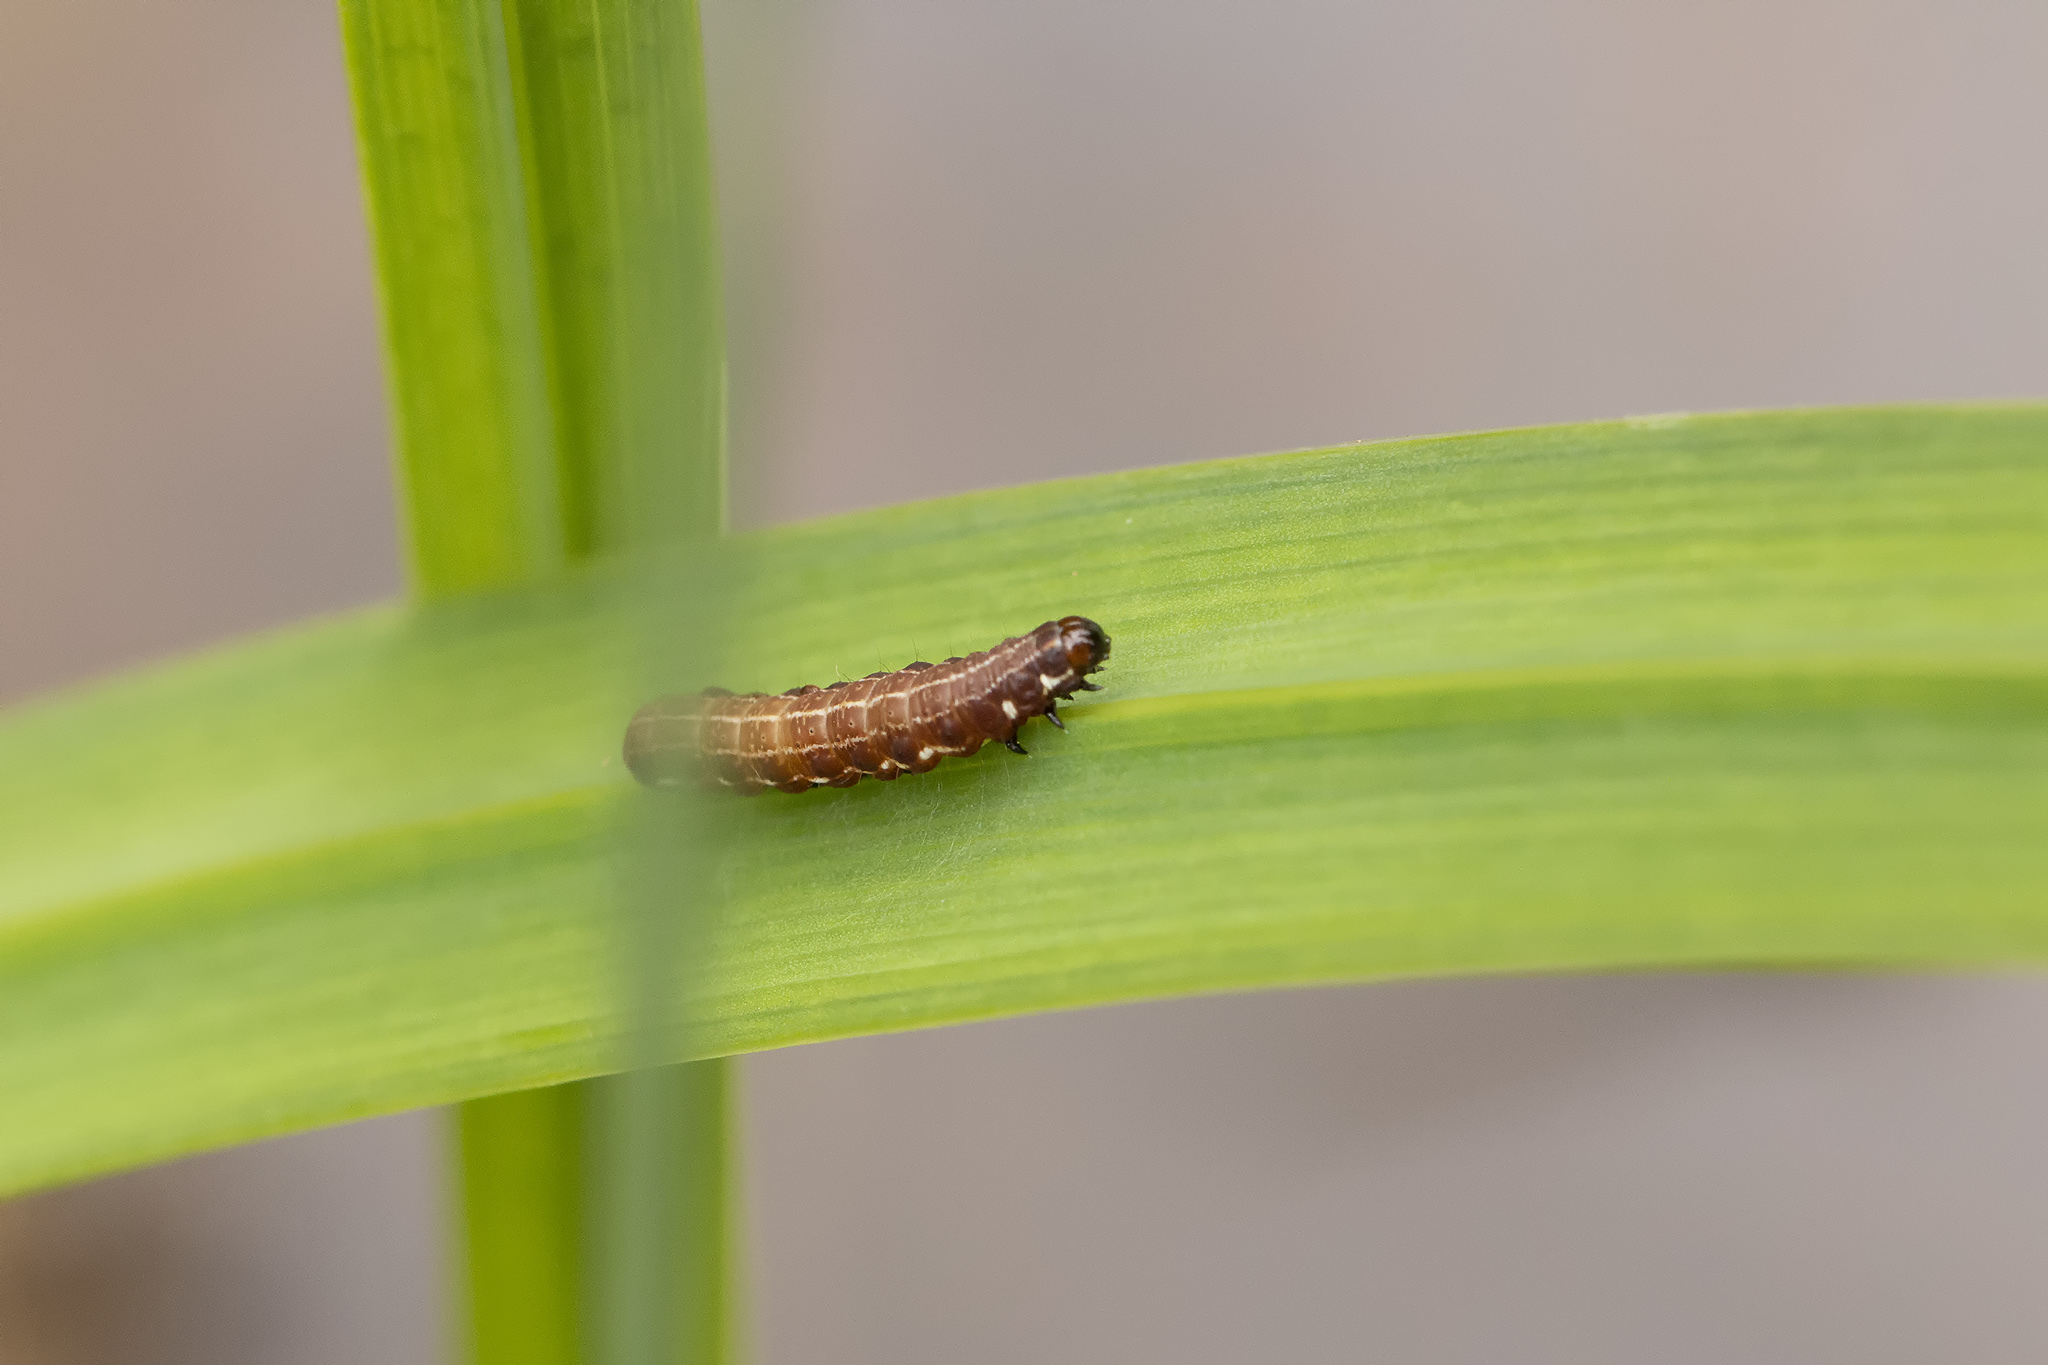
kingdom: Animalia
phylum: Arthropoda
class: Insecta
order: Lepidoptera
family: Noctuidae
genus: Eupsilia
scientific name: Eupsilia transversa
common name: Satellite
